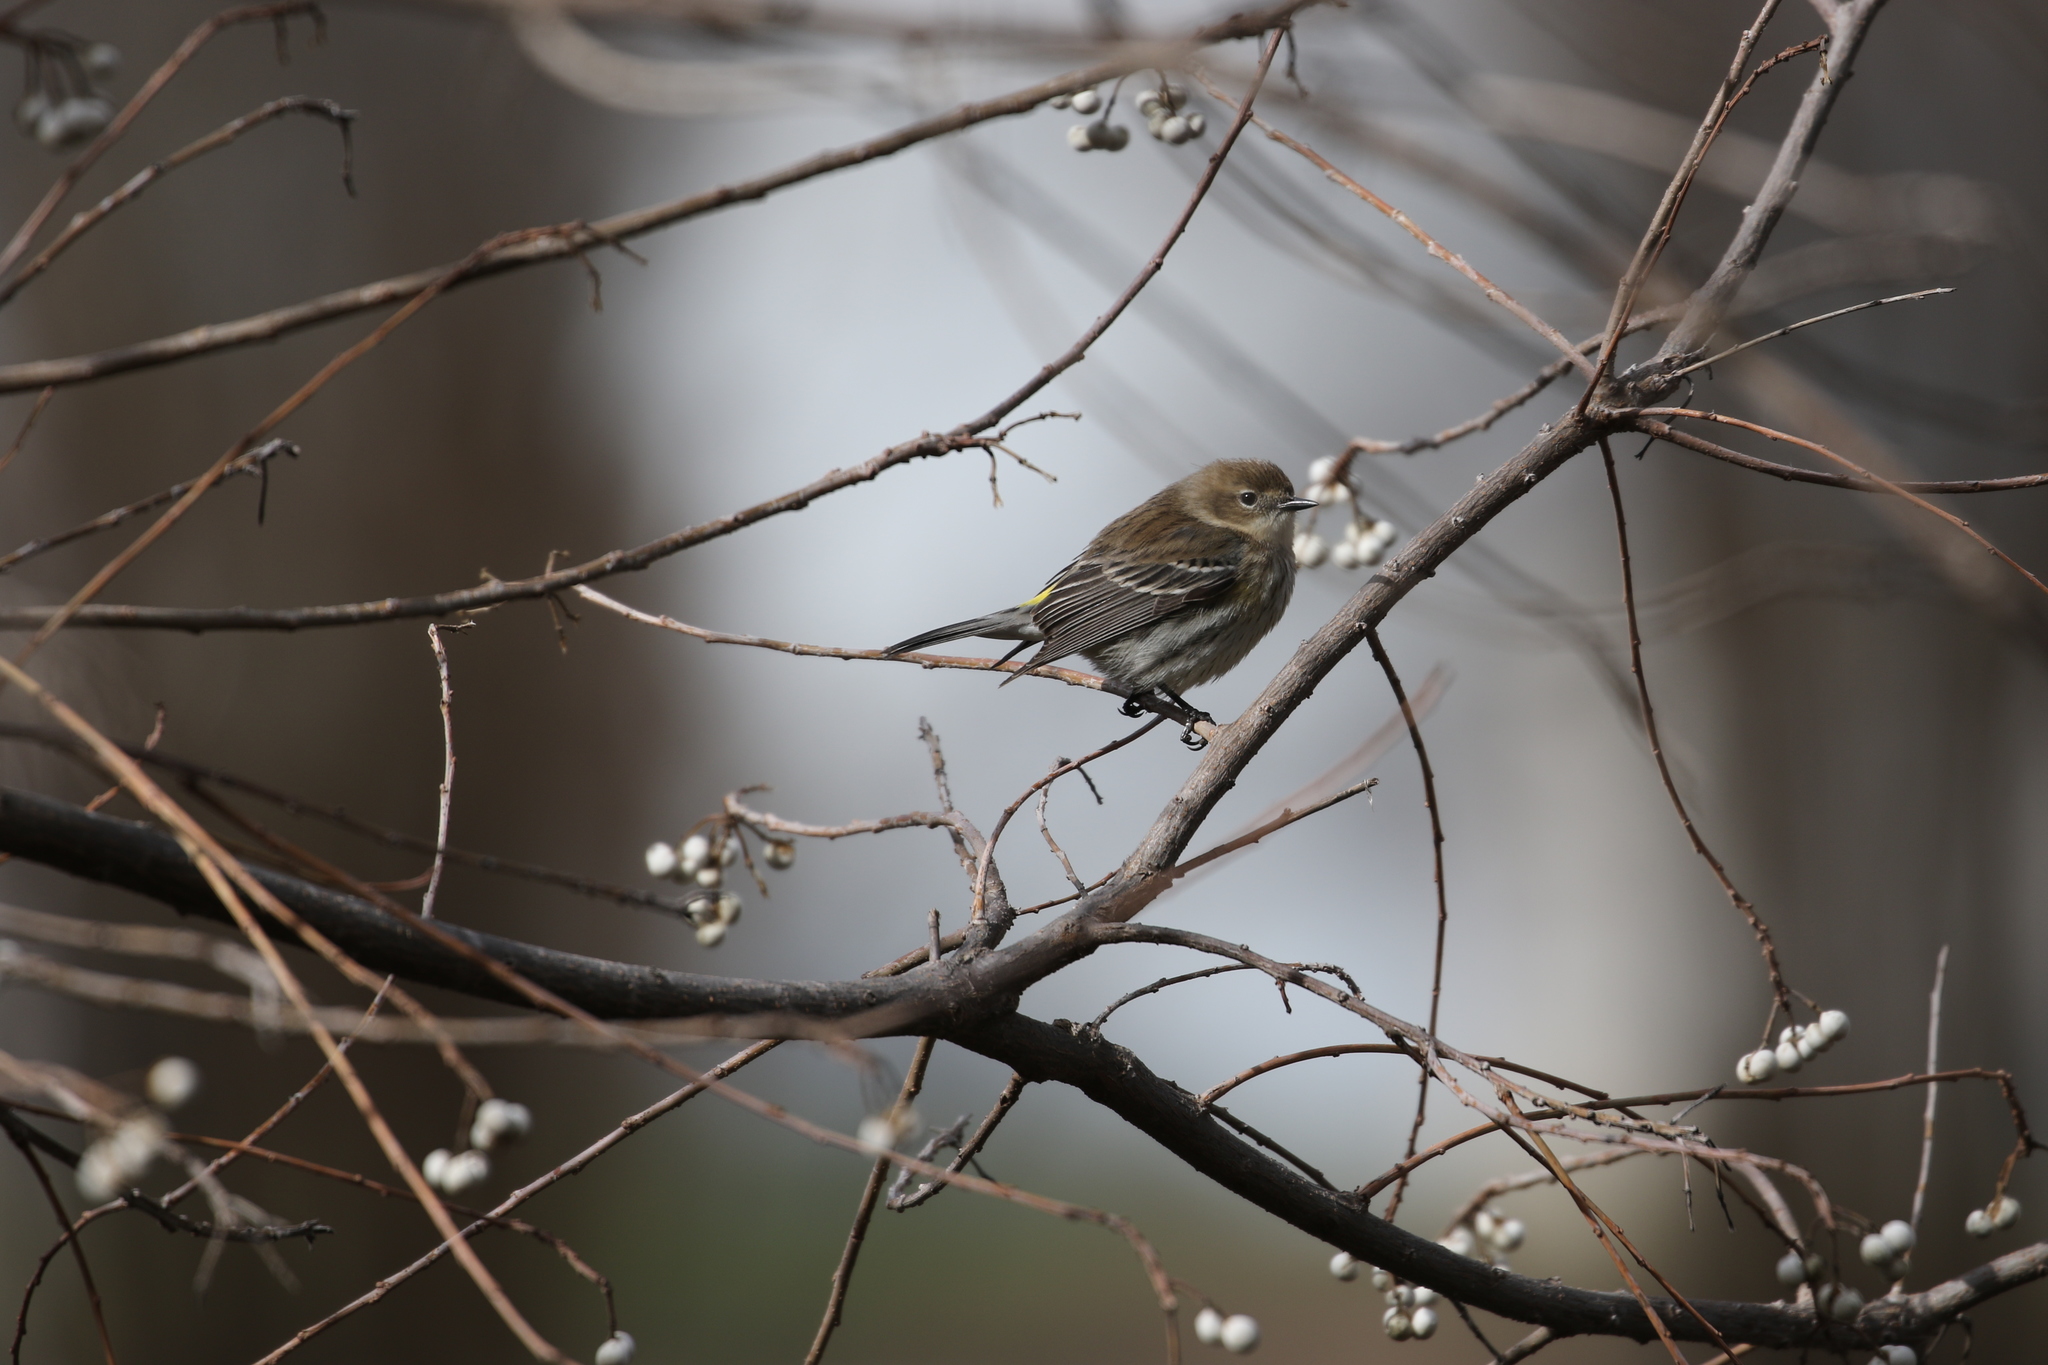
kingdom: Animalia
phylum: Chordata
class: Aves
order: Passeriformes
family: Parulidae
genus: Setophaga
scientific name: Setophaga coronata
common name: Myrtle warbler
